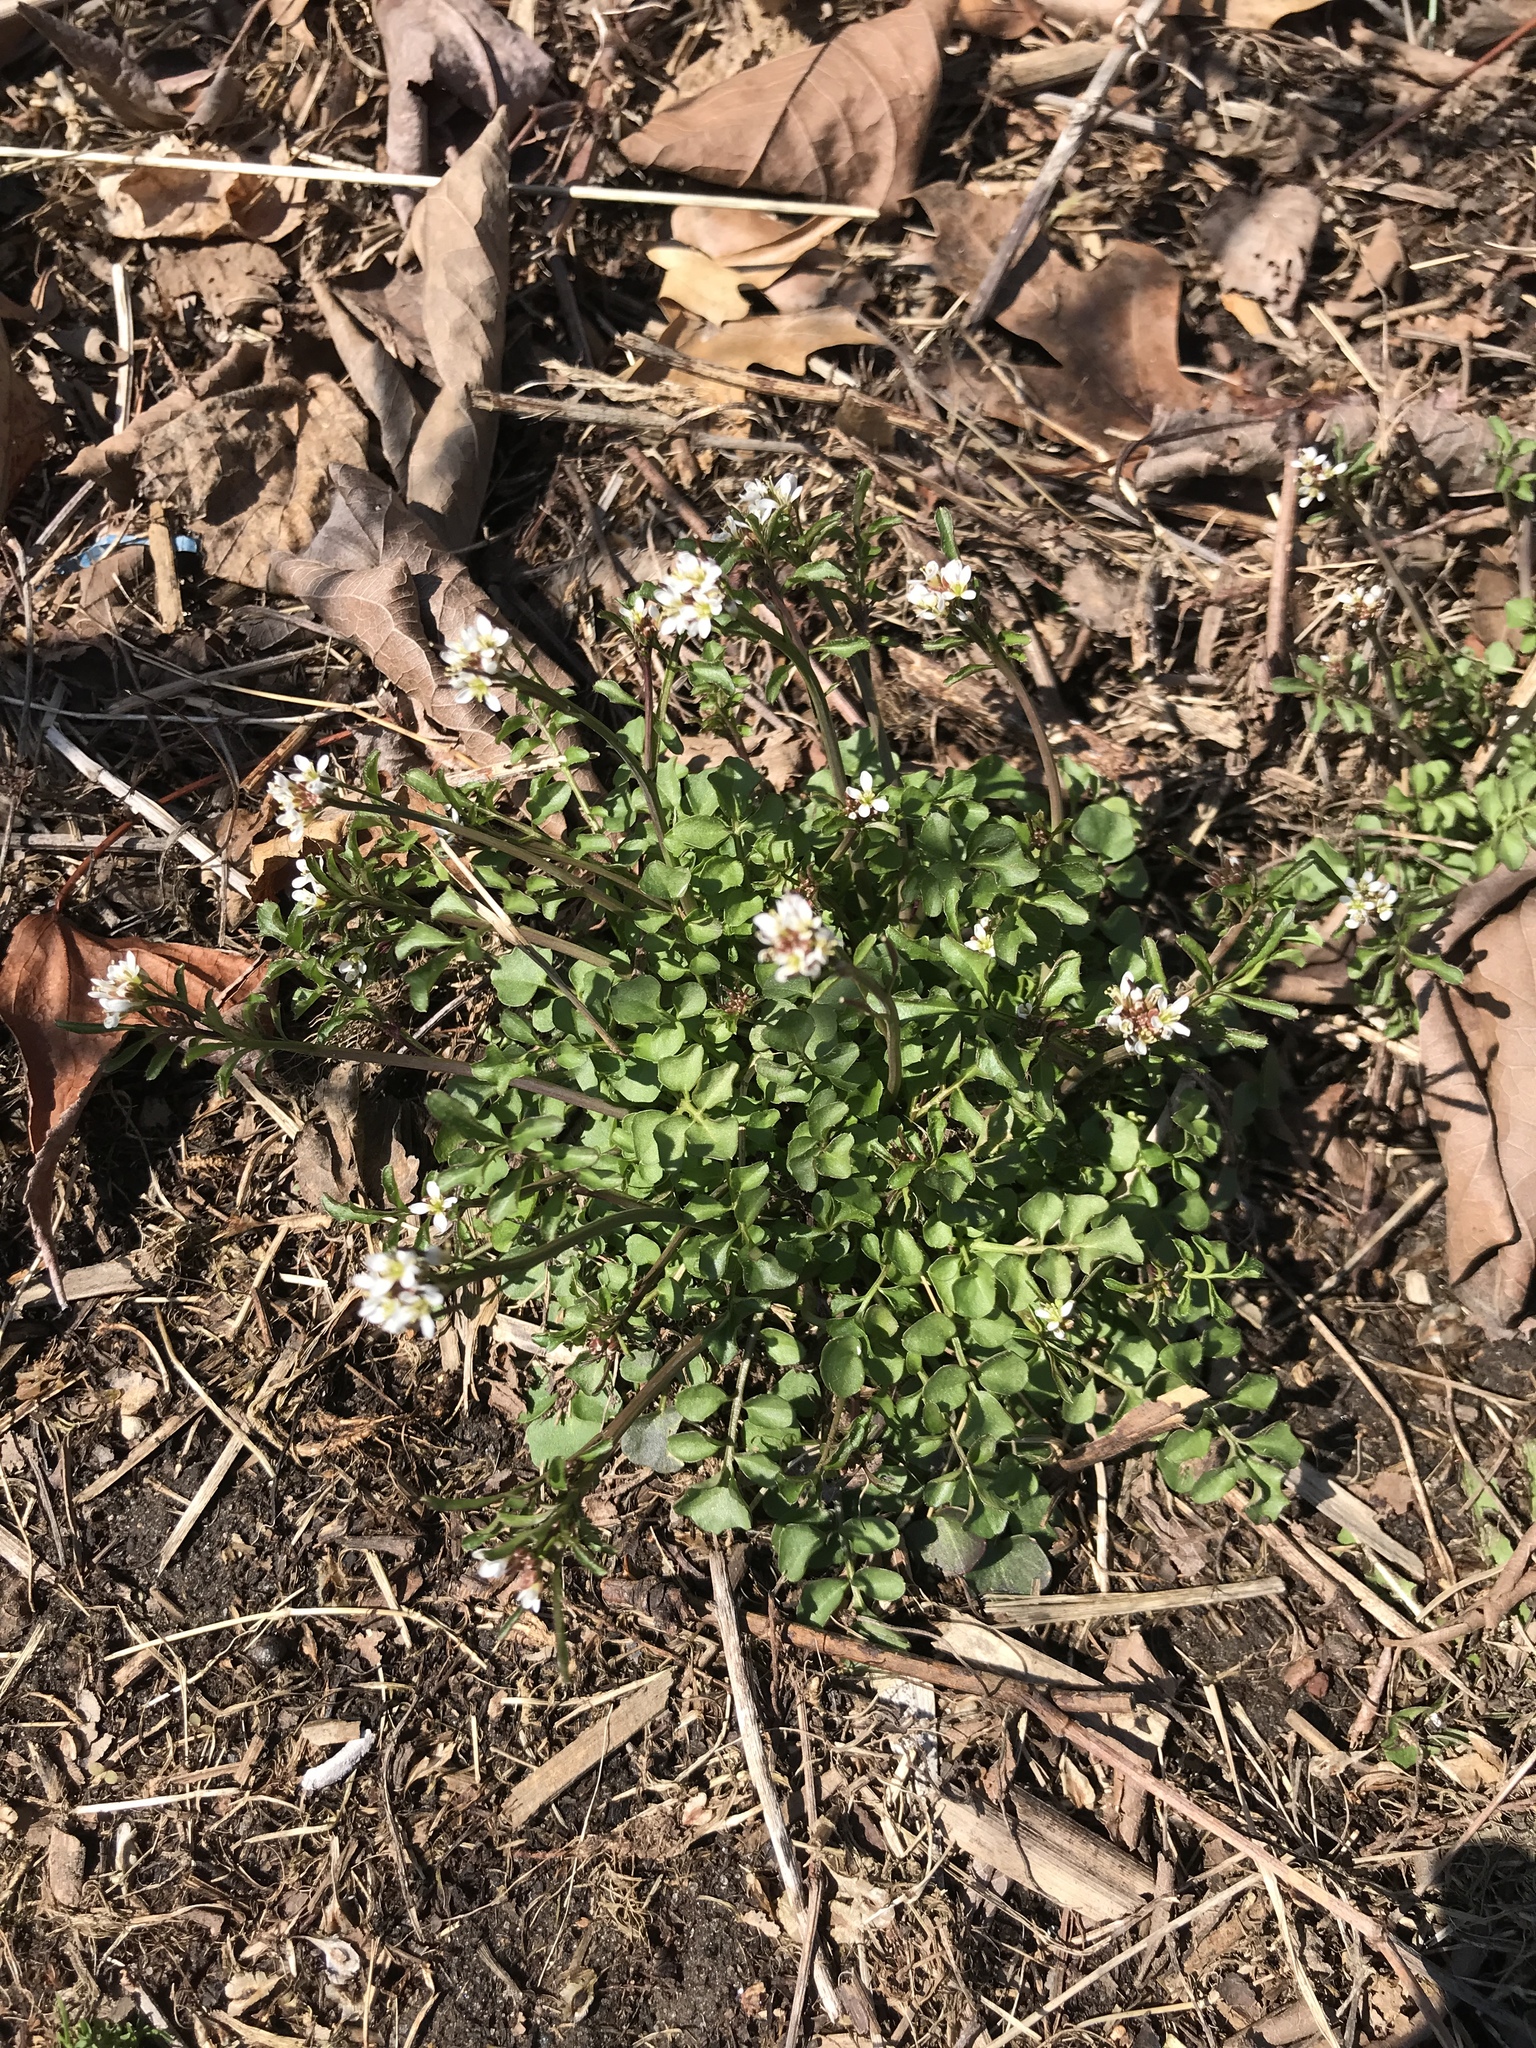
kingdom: Plantae
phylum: Tracheophyta
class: Magnoliopsida
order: Brassicales
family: Brassicaceae
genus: Cardamine
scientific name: Cardamine hirsuta
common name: Hairy bittercress
